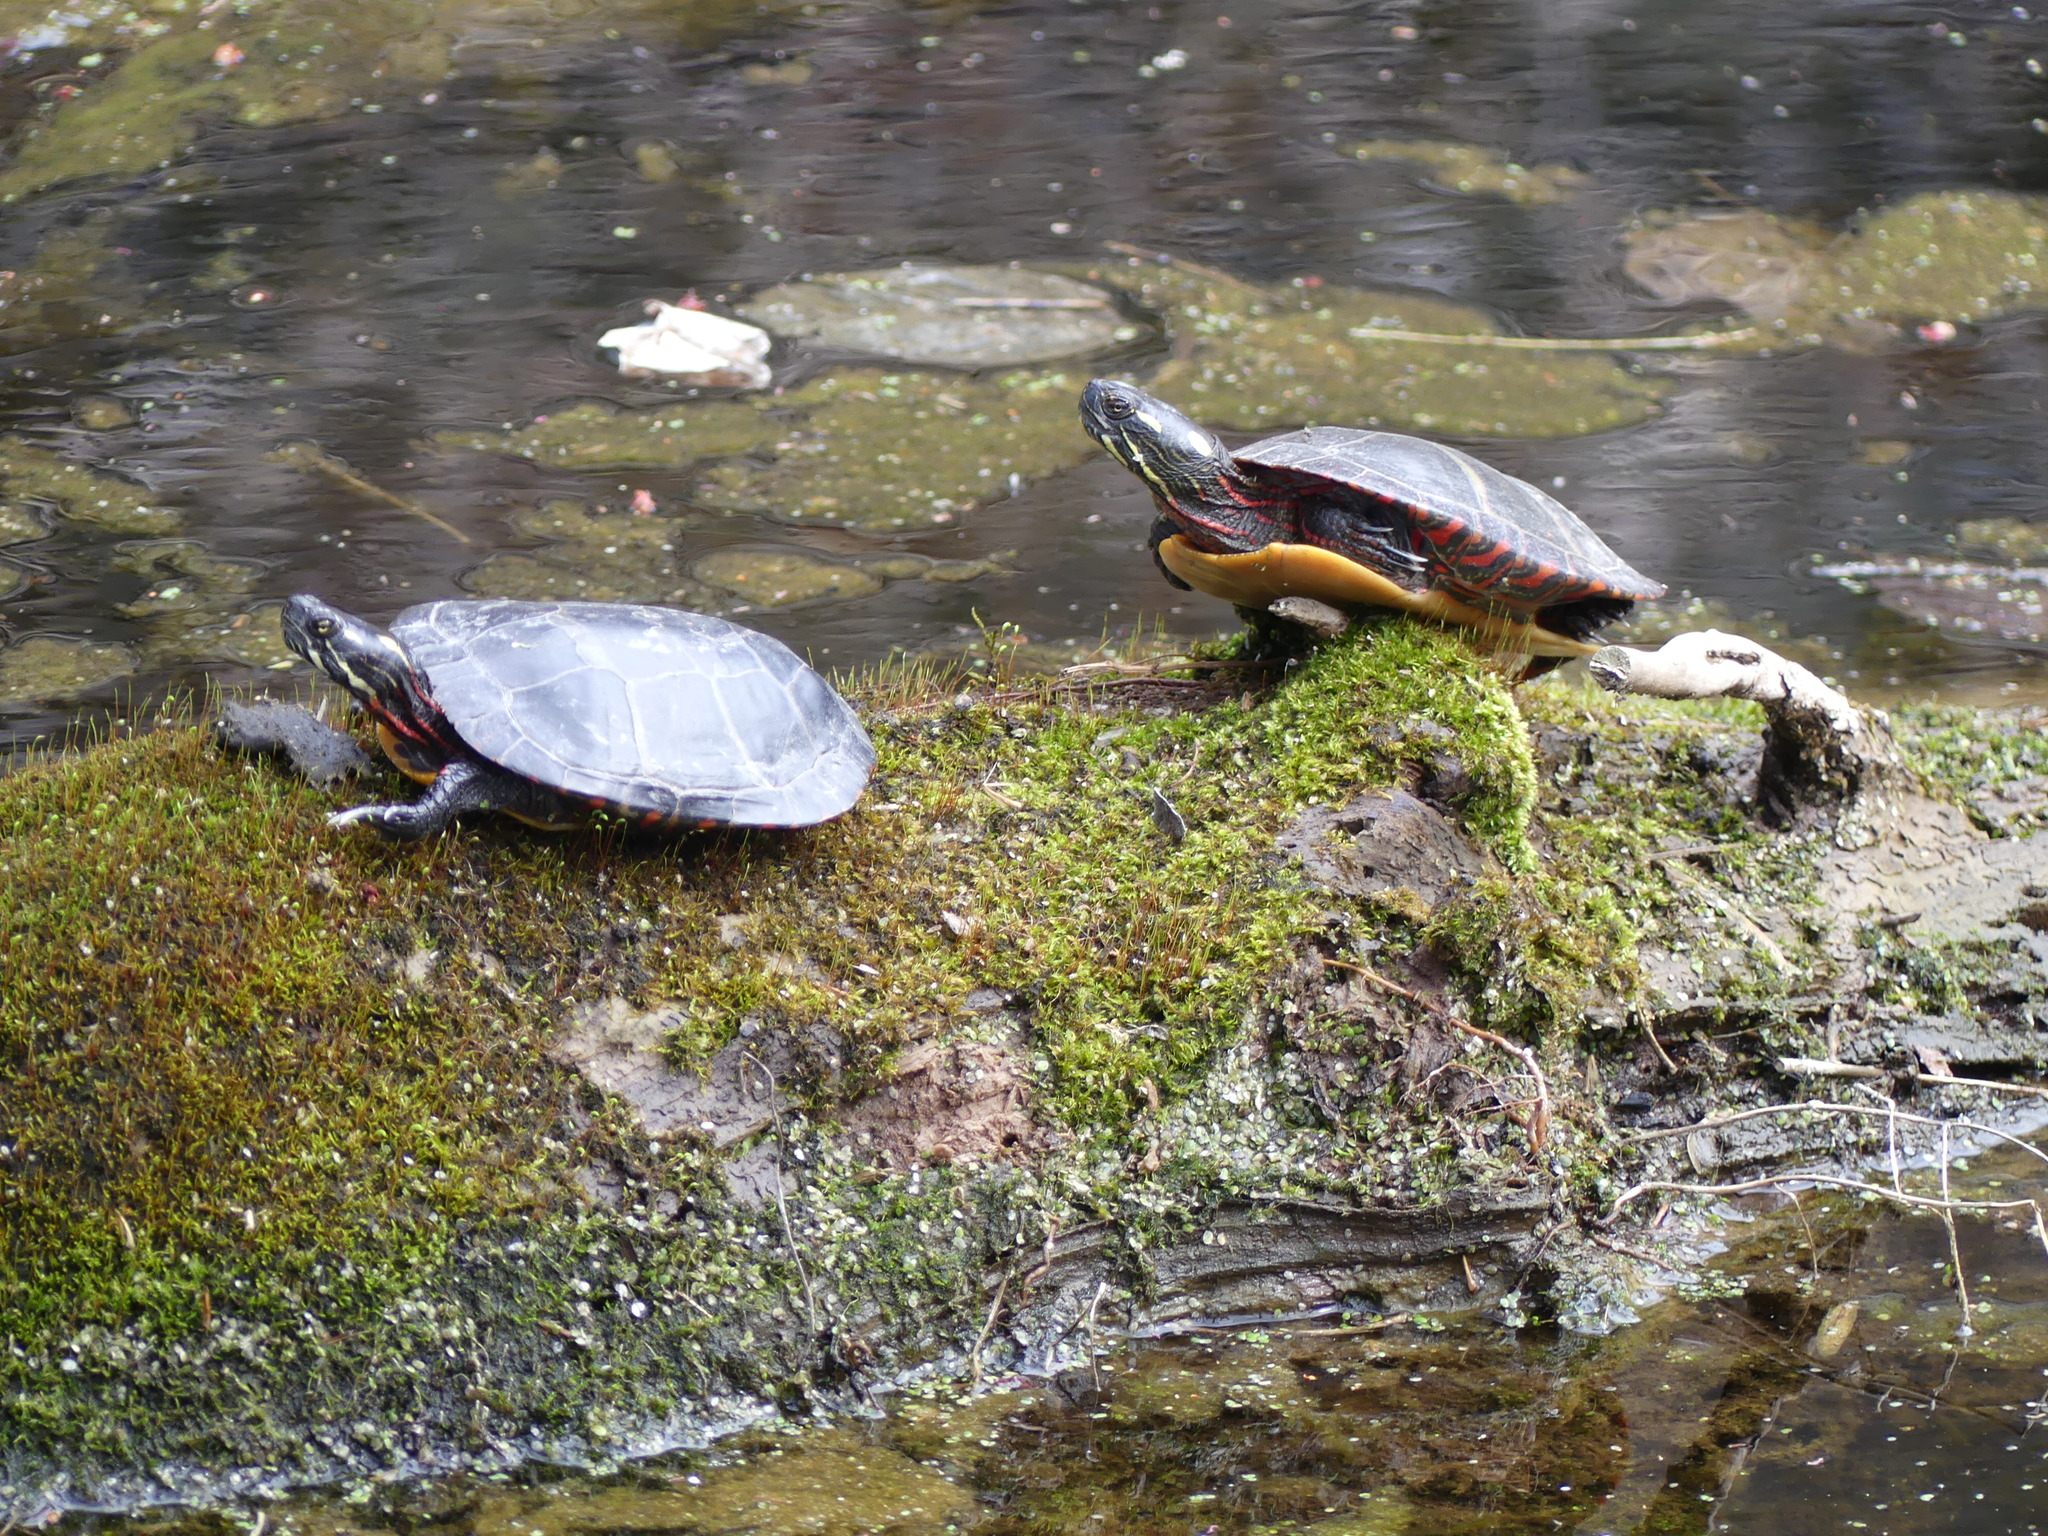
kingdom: Animalia
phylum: Chordata
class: Testudines
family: Emydidae
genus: Chrysemys
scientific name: Chrysemys picta
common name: Painted turtle
